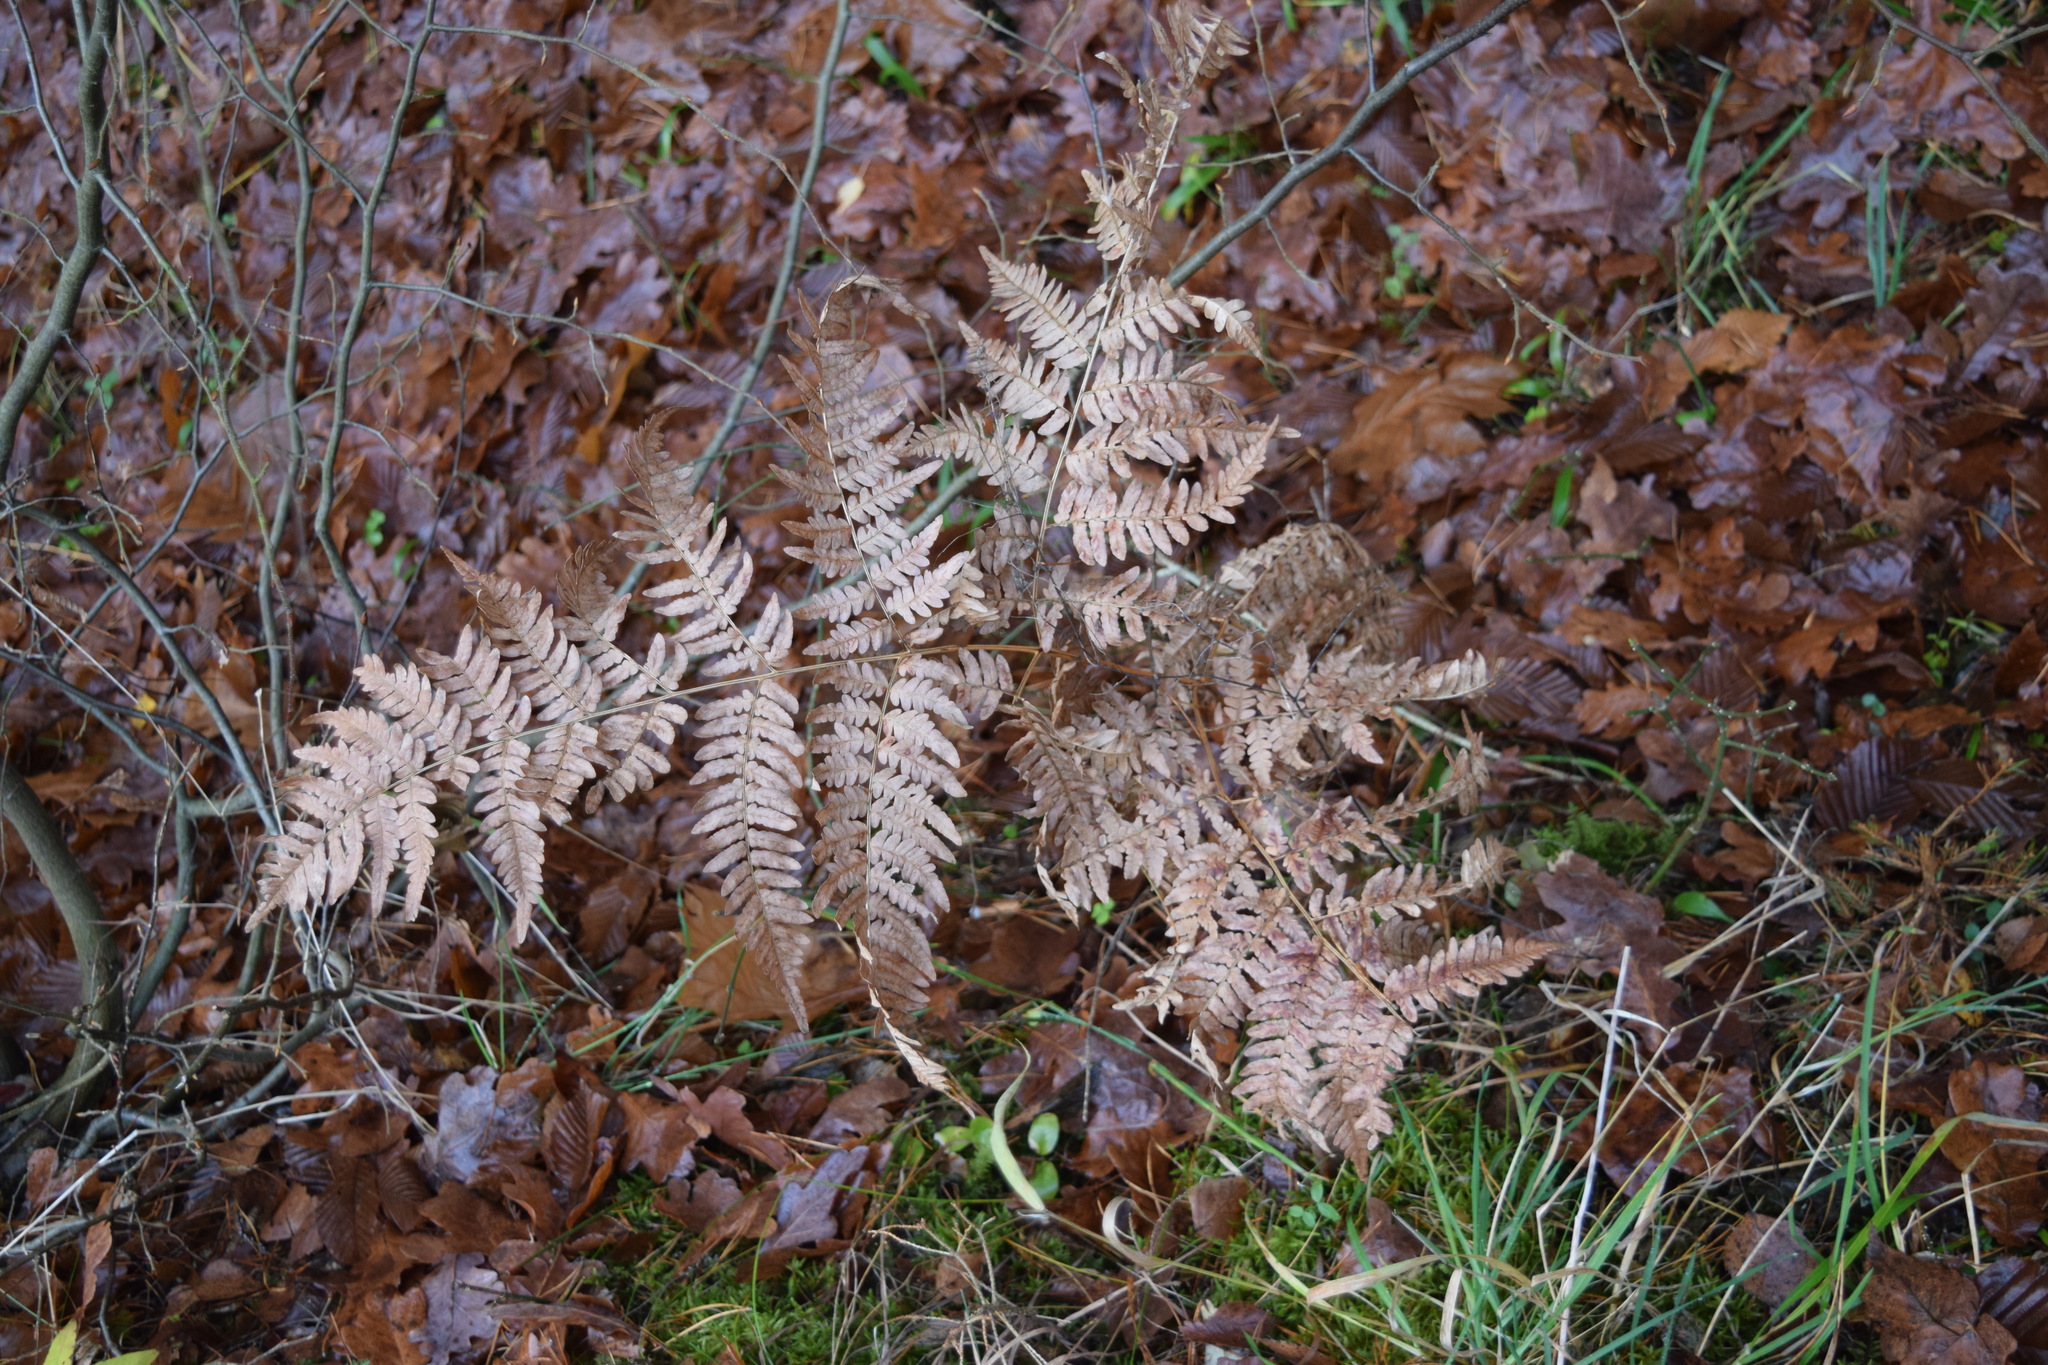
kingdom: Plantae
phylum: Tracheophyta
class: Polypodiopsida
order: Polypodiales
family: Dennstaedtiaceae
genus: Pteridium
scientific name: Pteridium aquilinum
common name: Bracken
